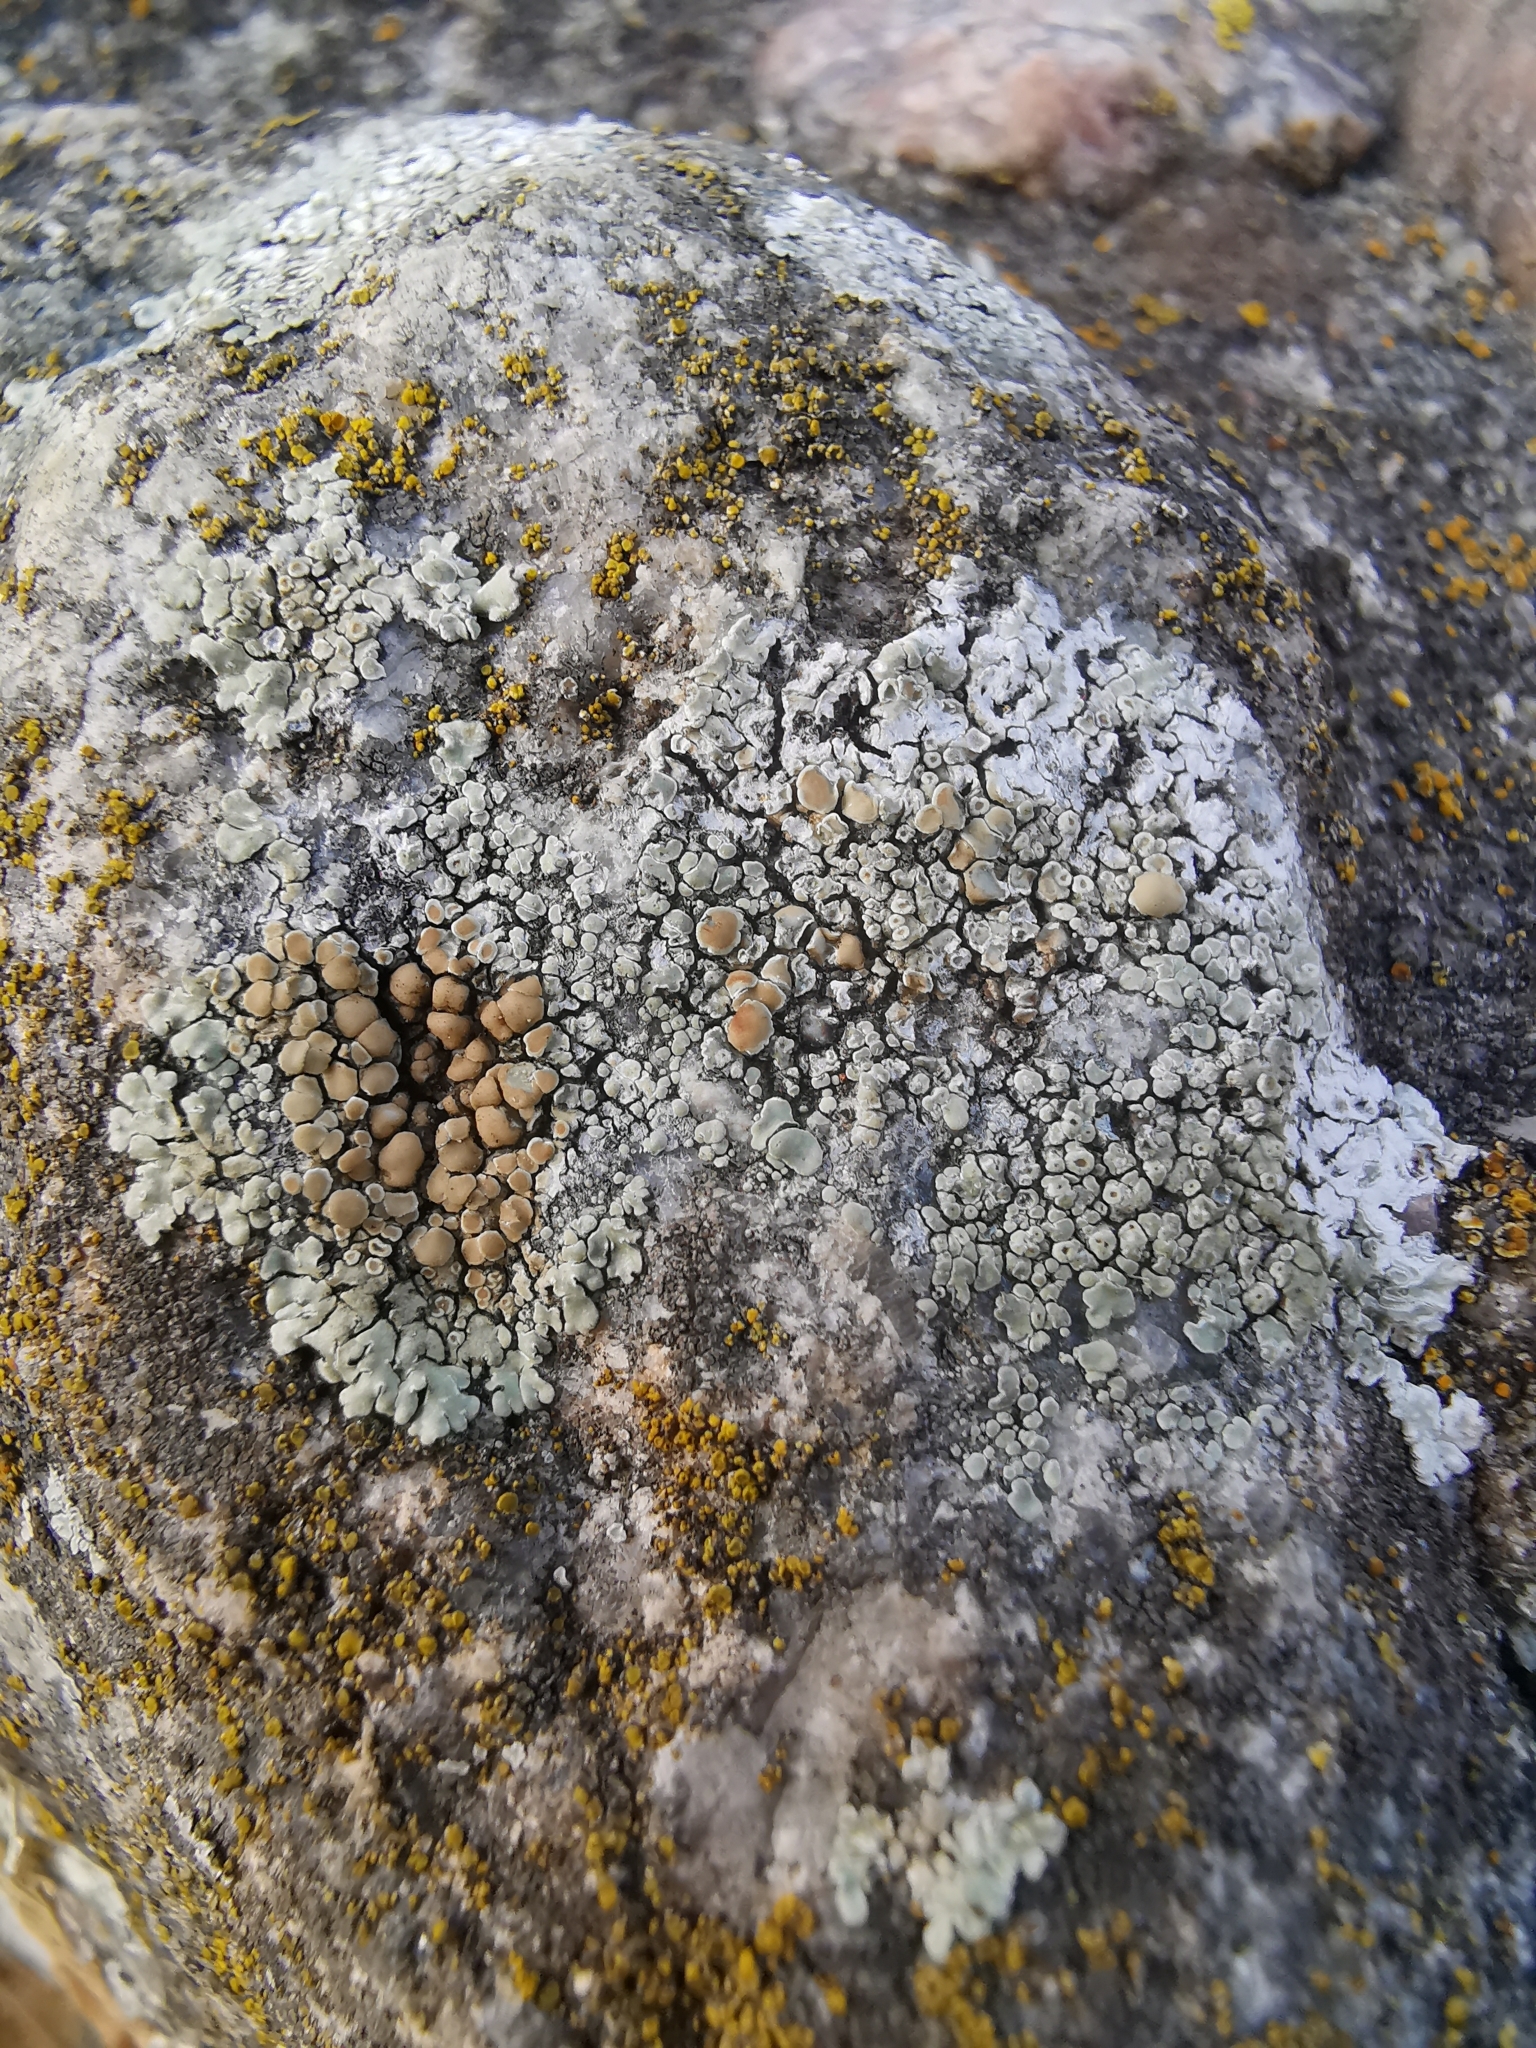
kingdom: Fungi
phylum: Ascomycota
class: Lecanoromycetes
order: Lecanorales
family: Lecanoraceae
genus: Protoparmeliopsis
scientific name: Protoparmeliopsis muralis
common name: Stonewall rim lichen
